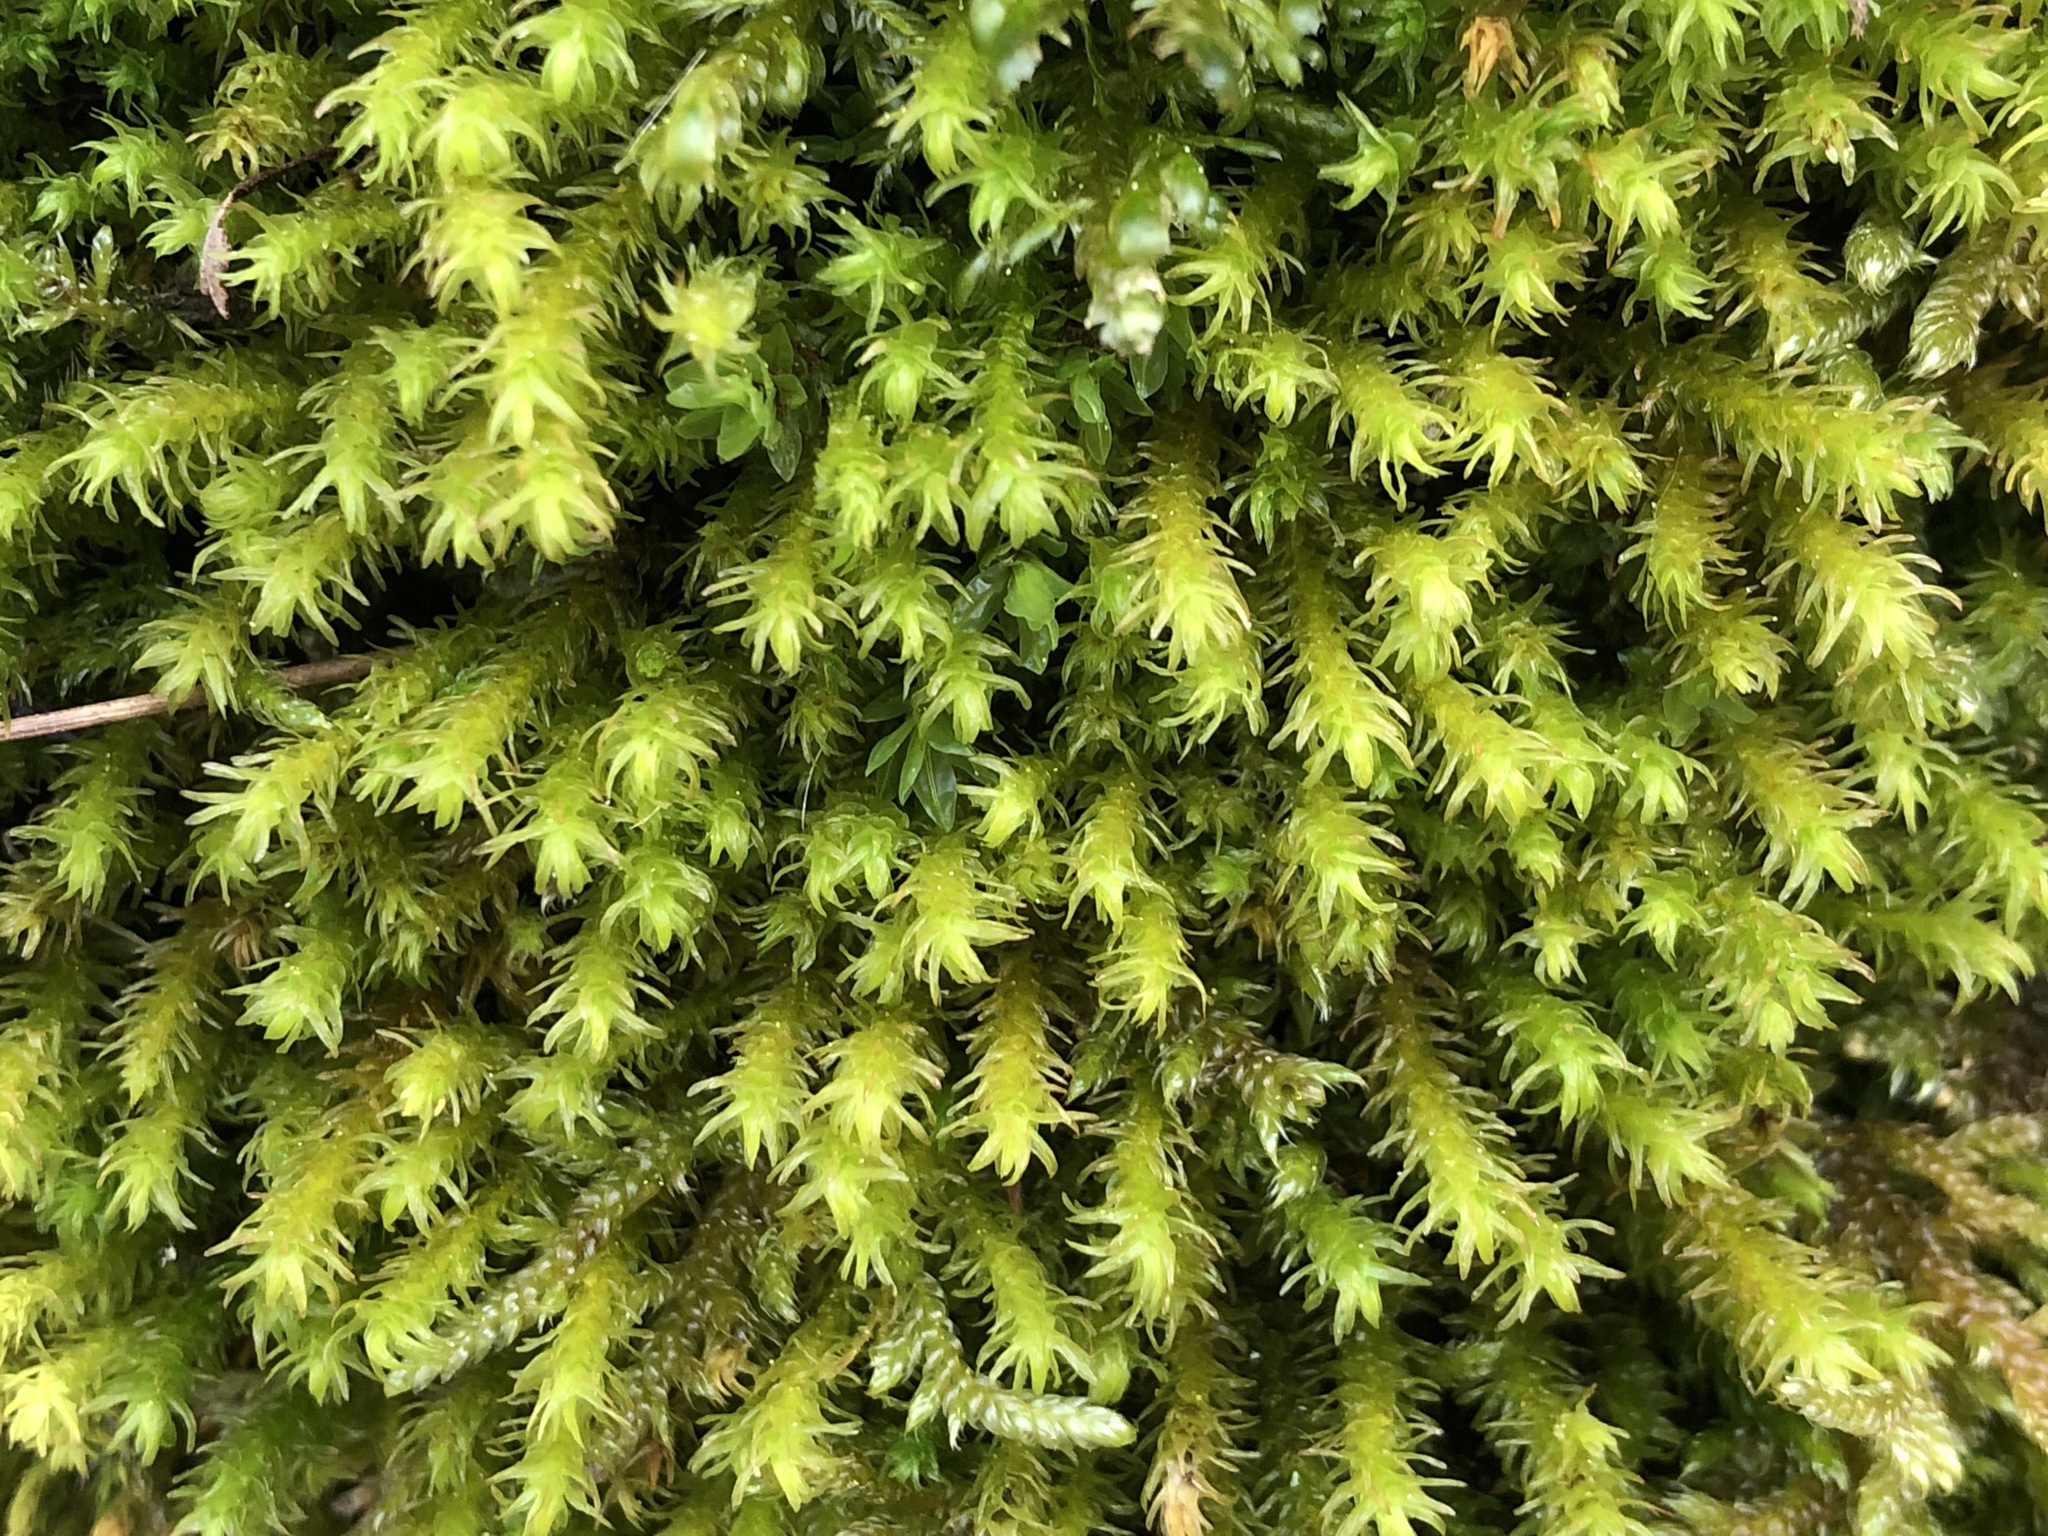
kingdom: Plantae
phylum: Bryophyta
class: Bryopsida
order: Hypnales
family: Anomodontaceae
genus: Anomodon
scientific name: Anomodon viticulosus
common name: Tall anomodon
